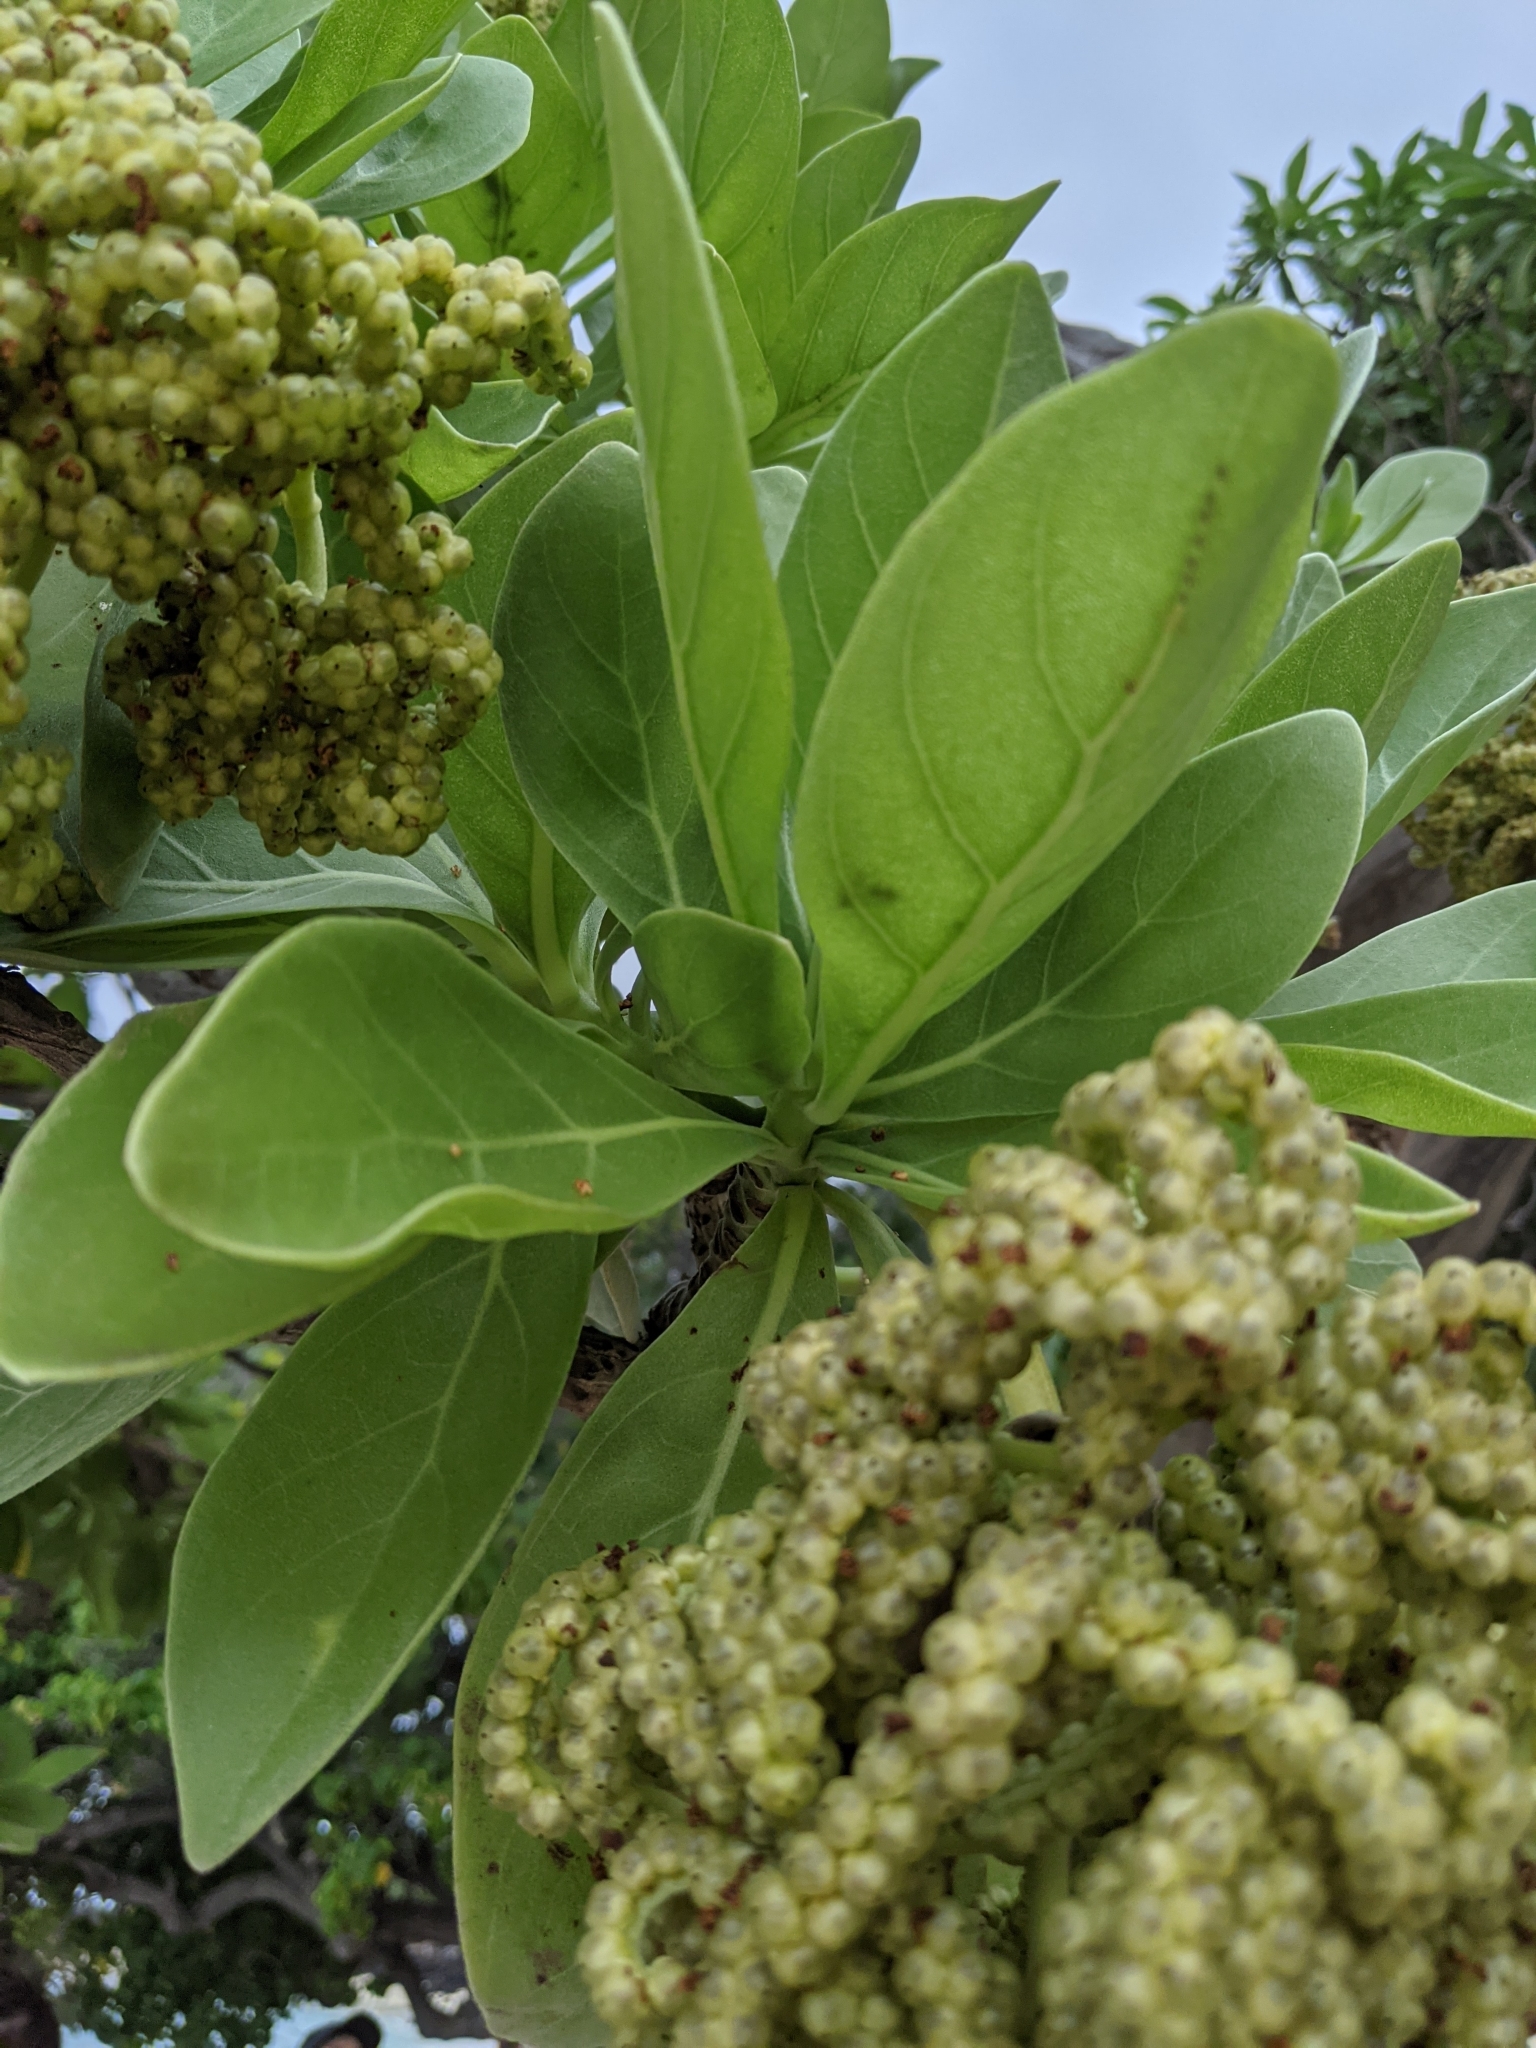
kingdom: Plantae
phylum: Tracheophyta
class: Magnoliopsida
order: Boraginales
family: Heliotropiaceae
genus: Heliotropium
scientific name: Heliotropium velutinum
